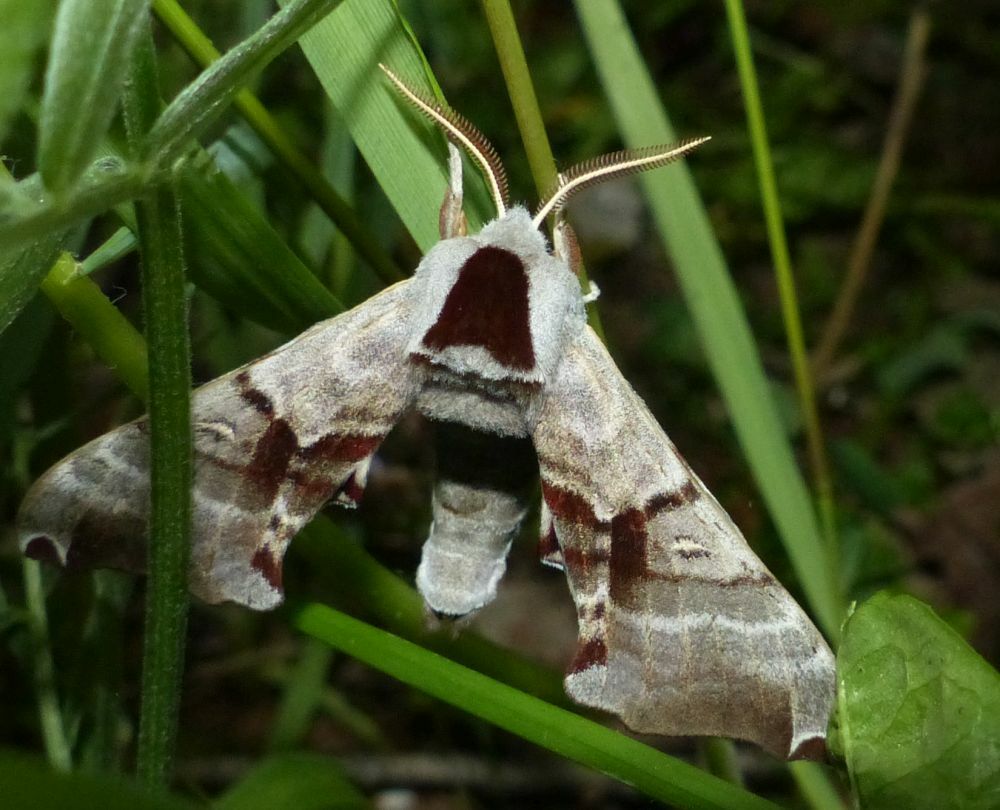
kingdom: Animalia
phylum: Arthropoda
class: Insecta
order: Lepidoptera
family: Sphingidae
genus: Smerinthus
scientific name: Smerinthus jamaicensis
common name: Twin spotted sphinx
